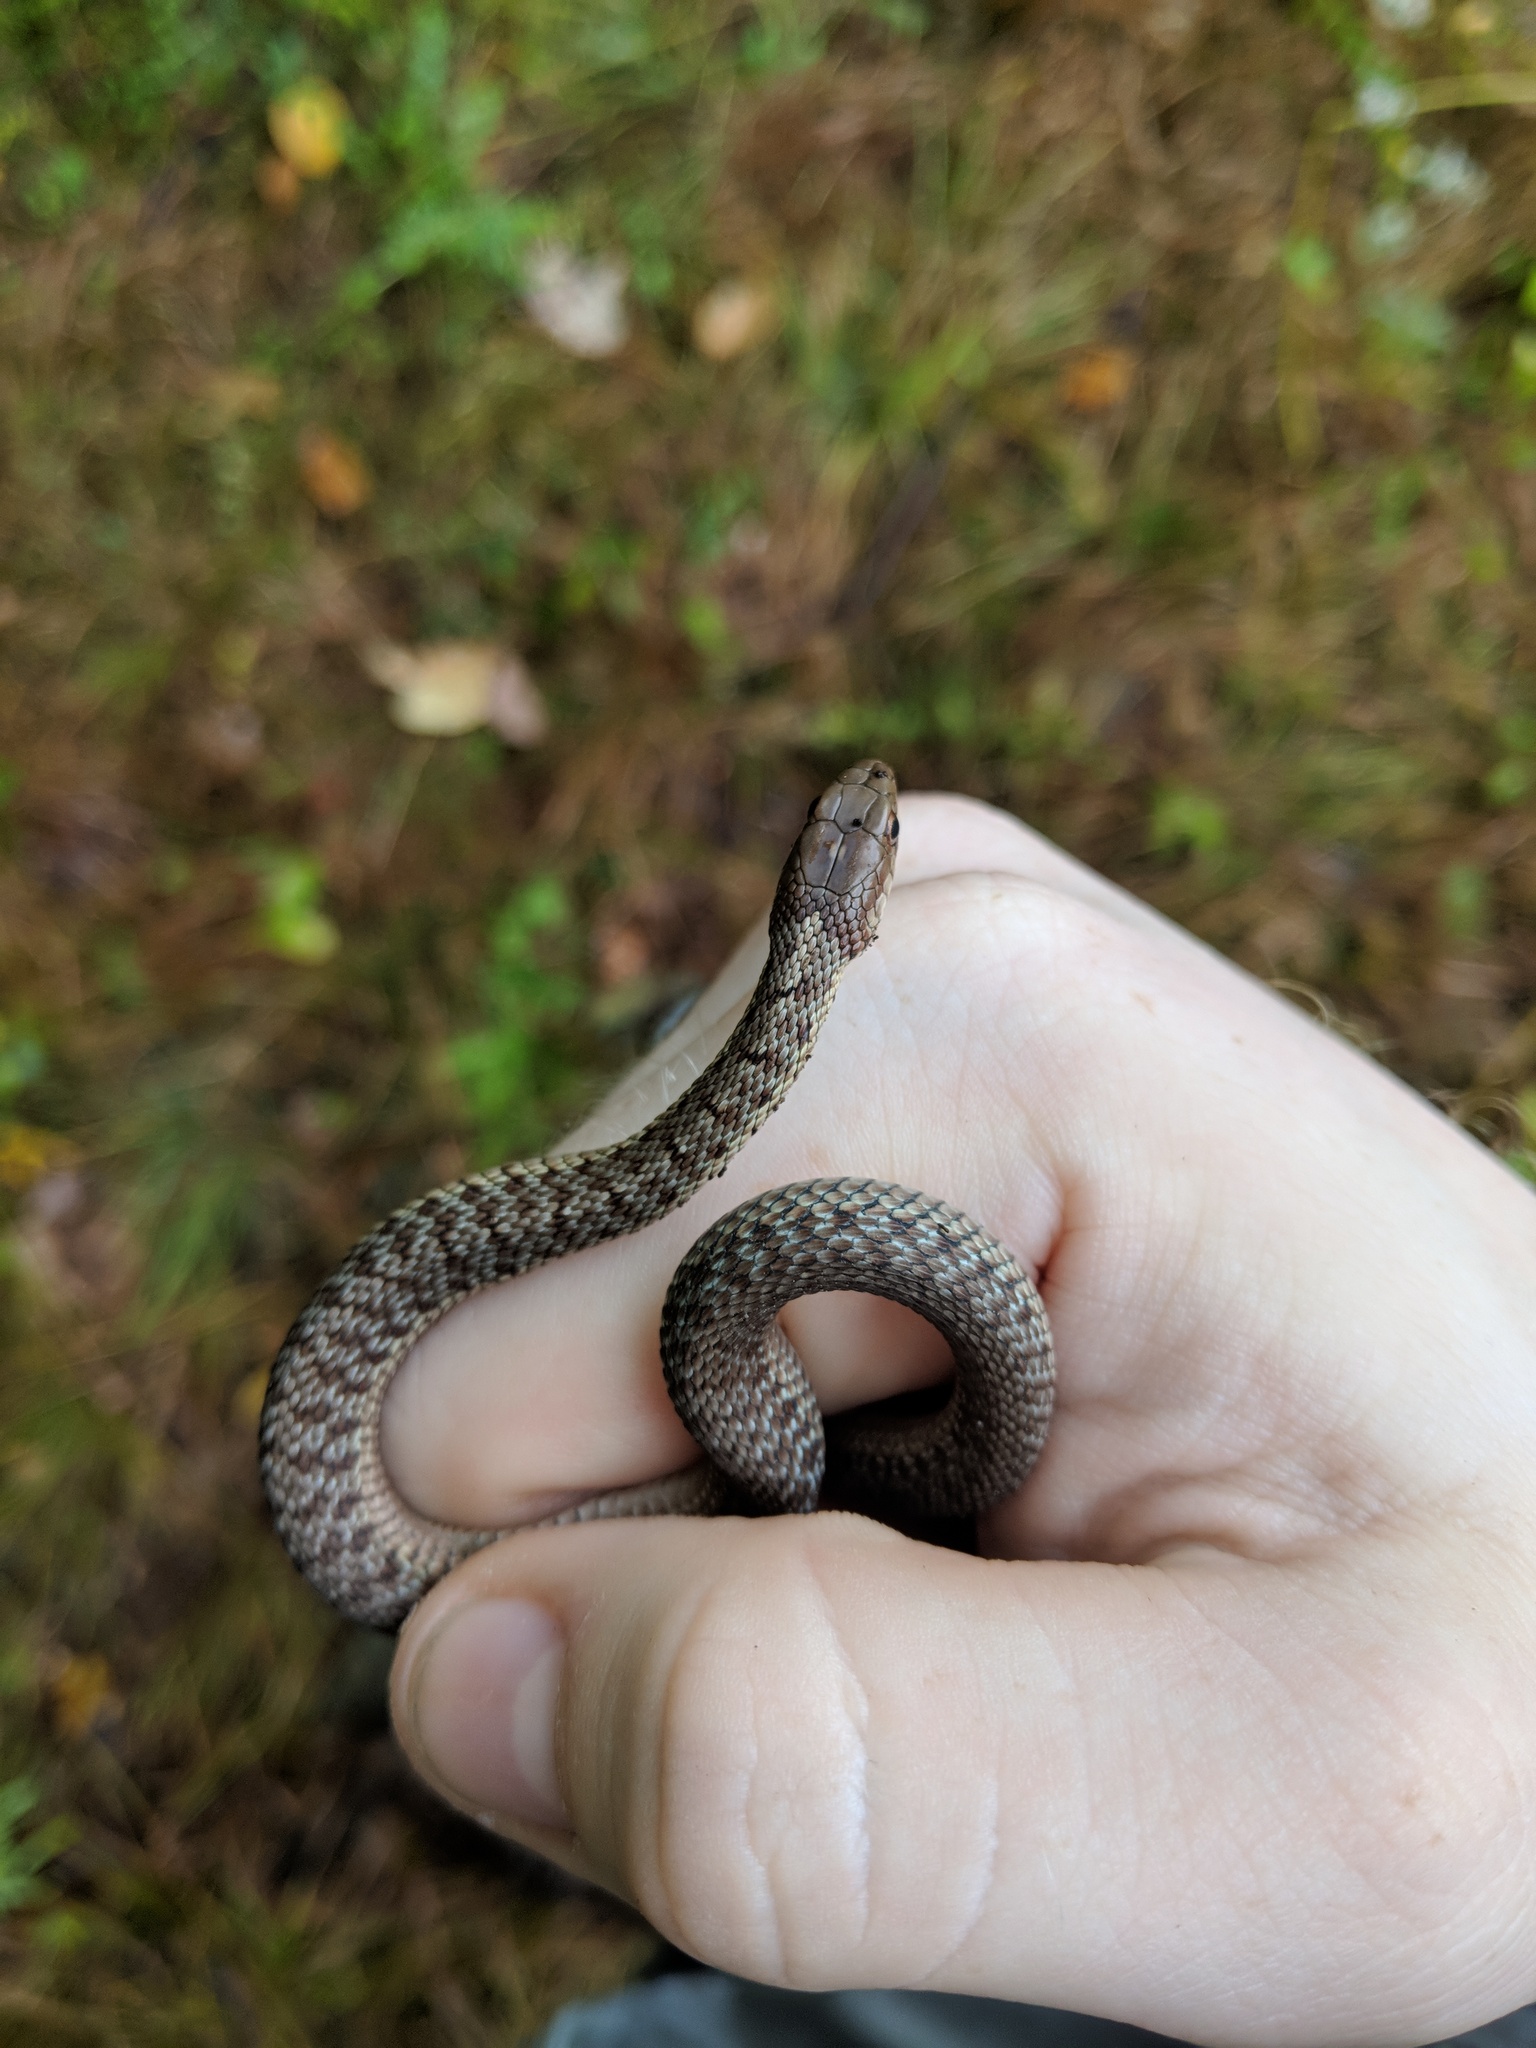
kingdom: Animalia
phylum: Chordata
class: Squamata
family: Colubridae
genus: Thamnophis
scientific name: Thamnophis sirtalis
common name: Common garter snake
